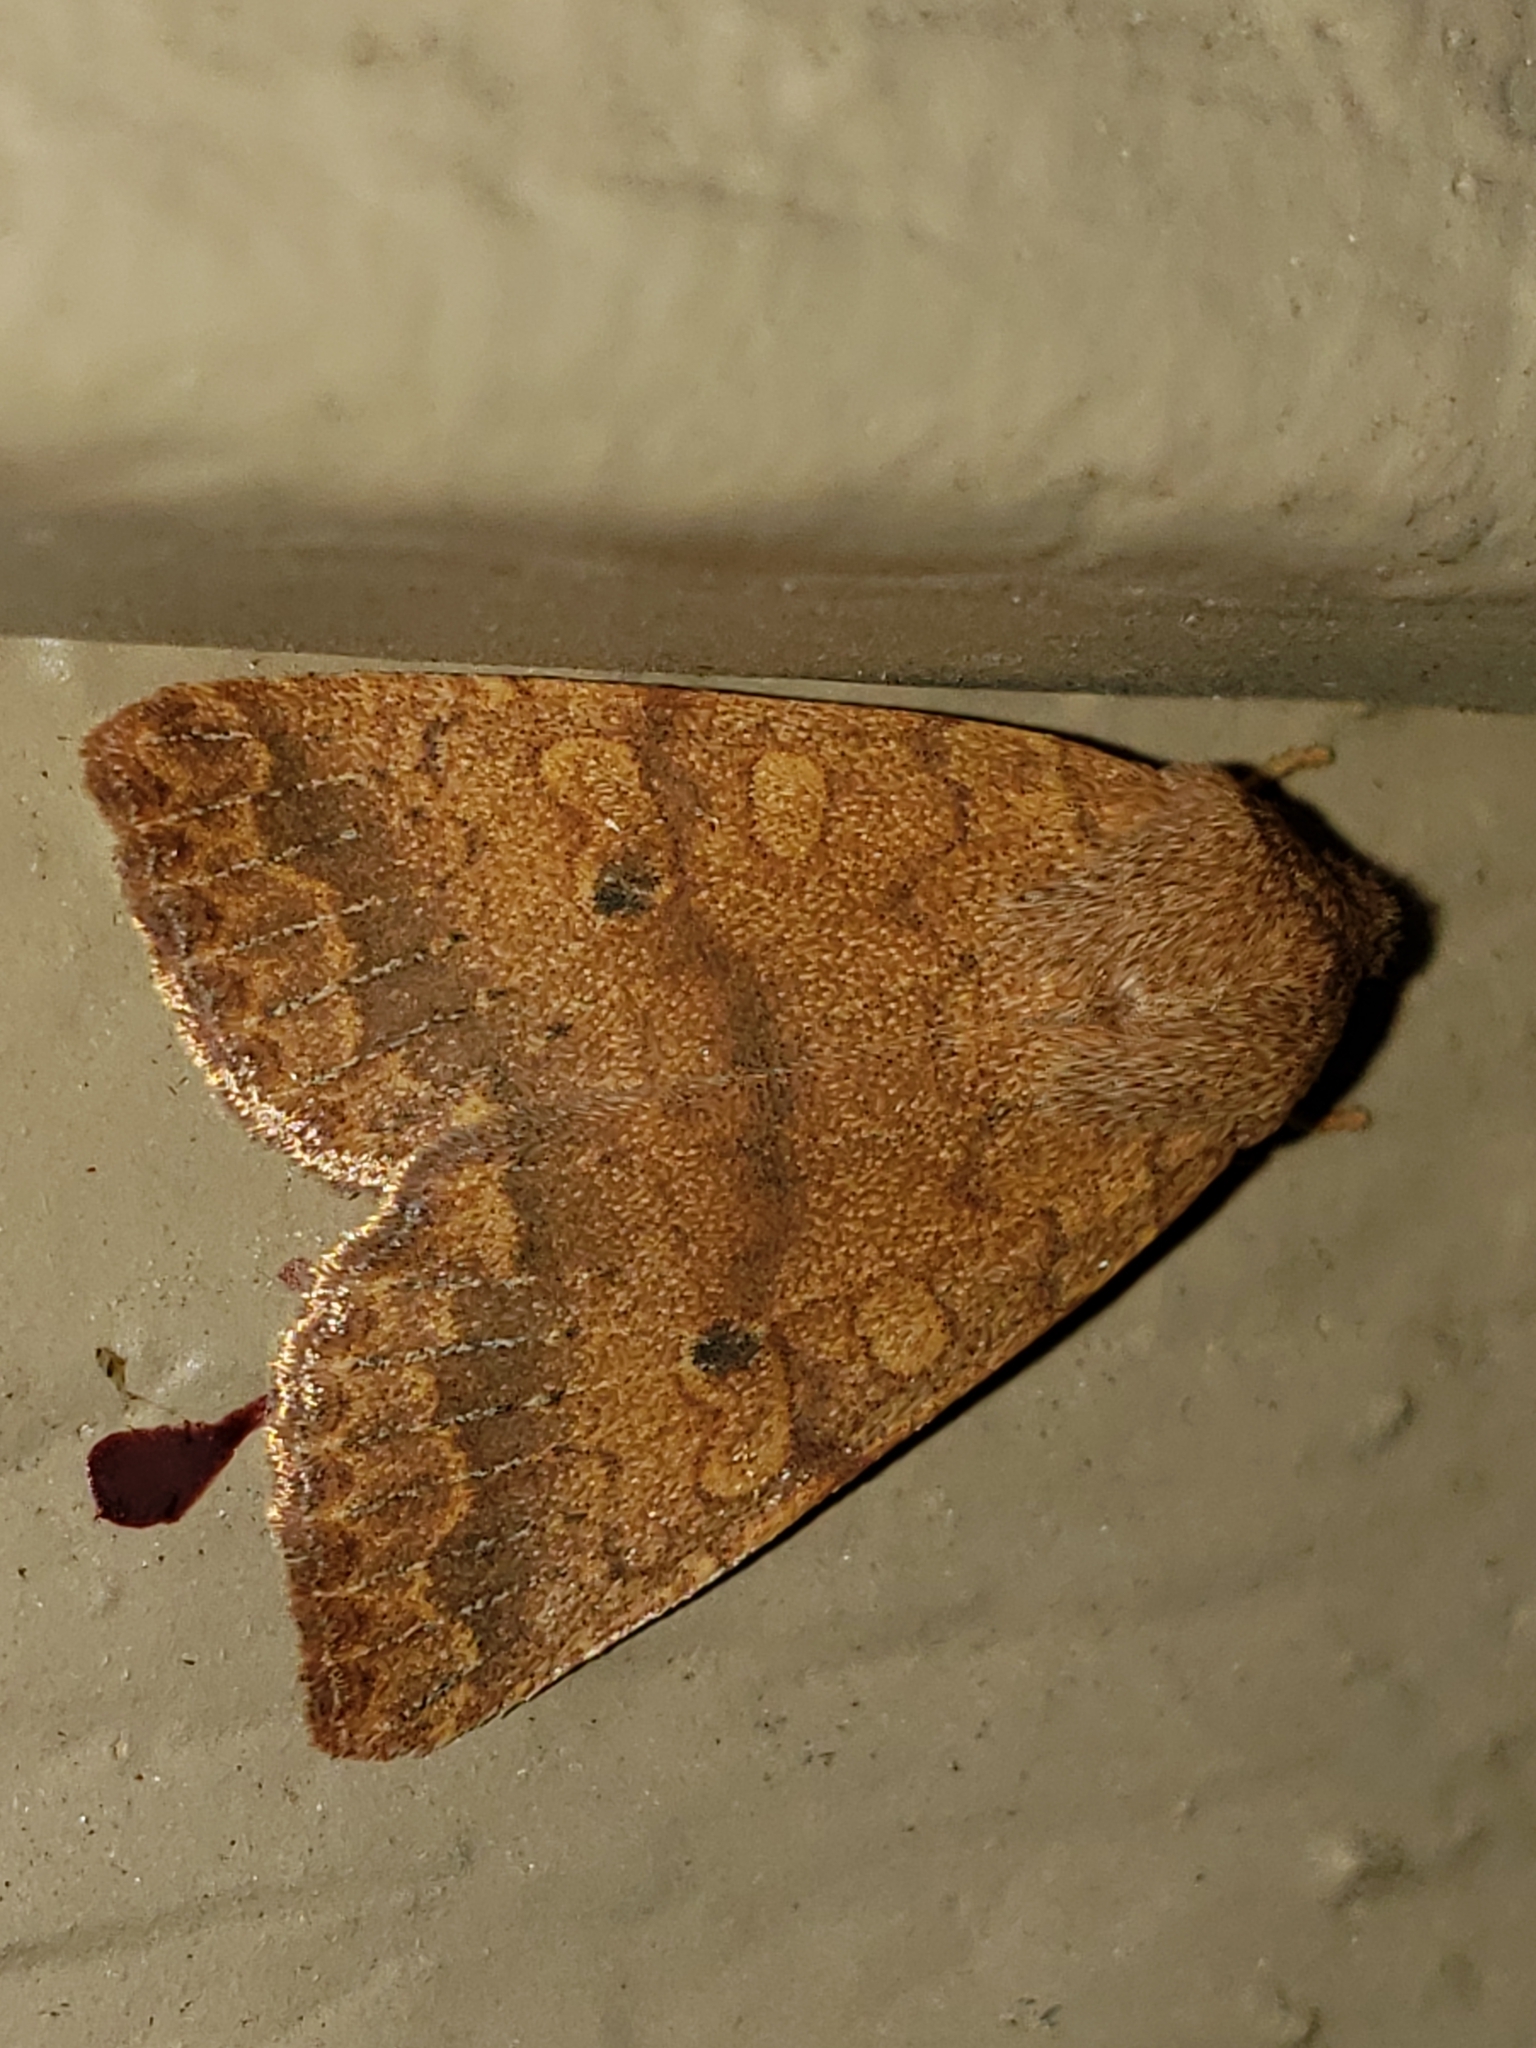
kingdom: Animalia
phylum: Arthropoda
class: Insecta
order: Lepidoptera
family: Noctuidae
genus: Agrochola
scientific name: Agrochola bicolorago
